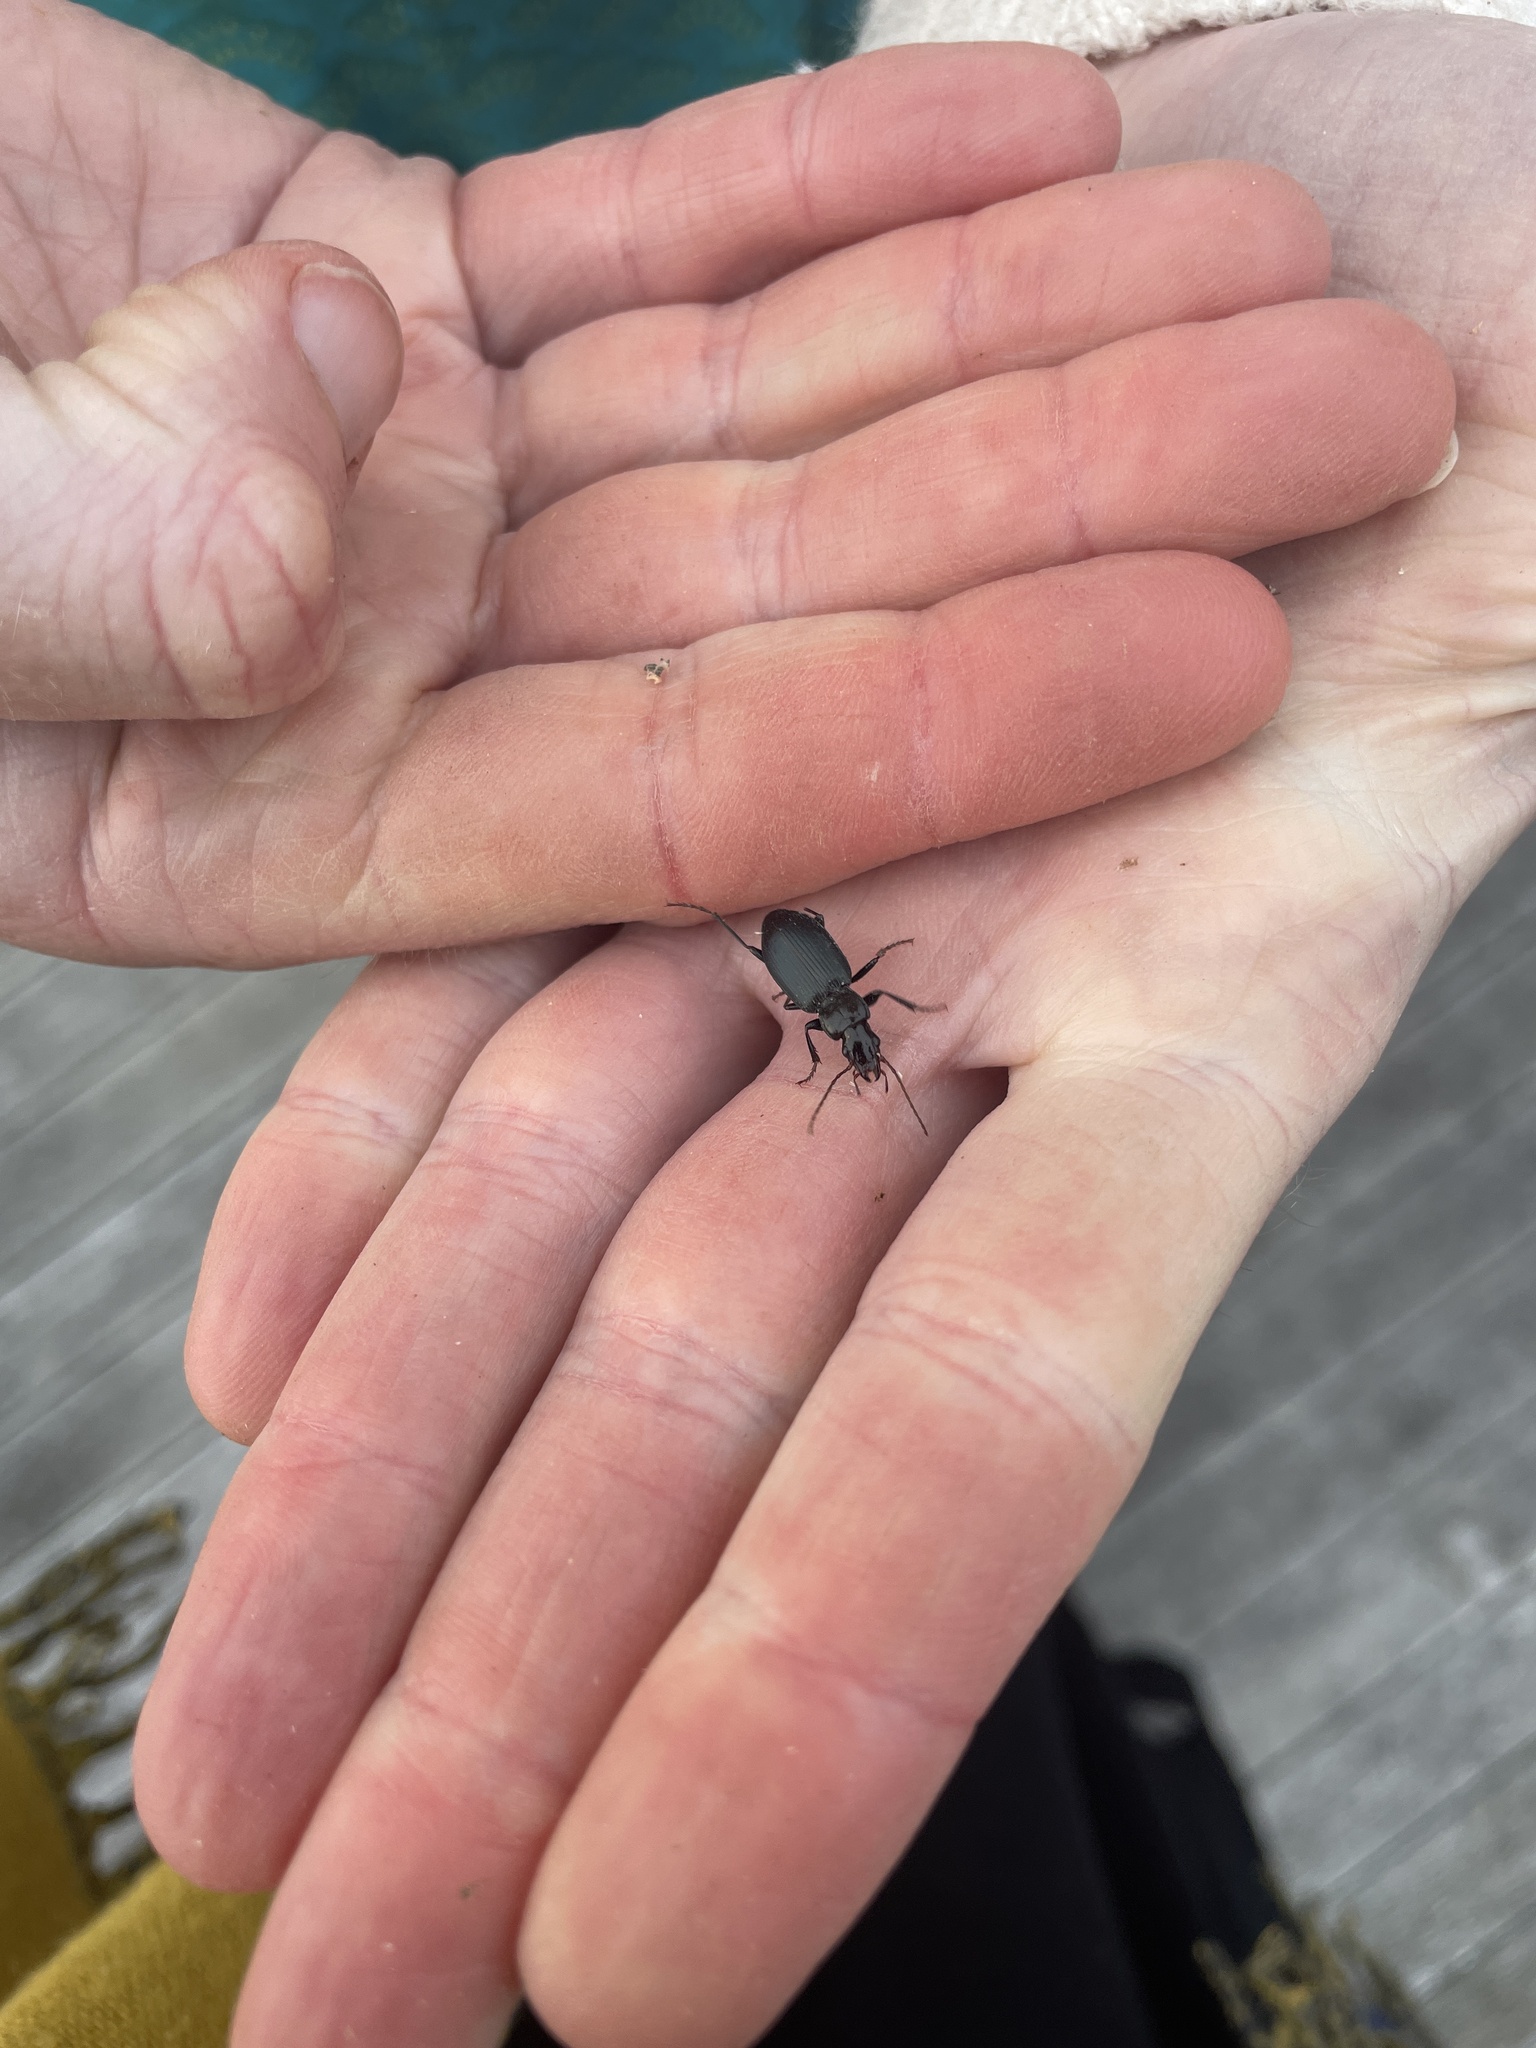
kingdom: Animalia
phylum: Arthropoda
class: Insecta
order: Coleoptera
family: Carabidae
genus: Laemostenus
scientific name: Laemostenus complanatus
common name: Cosmopolitan ground beetle
